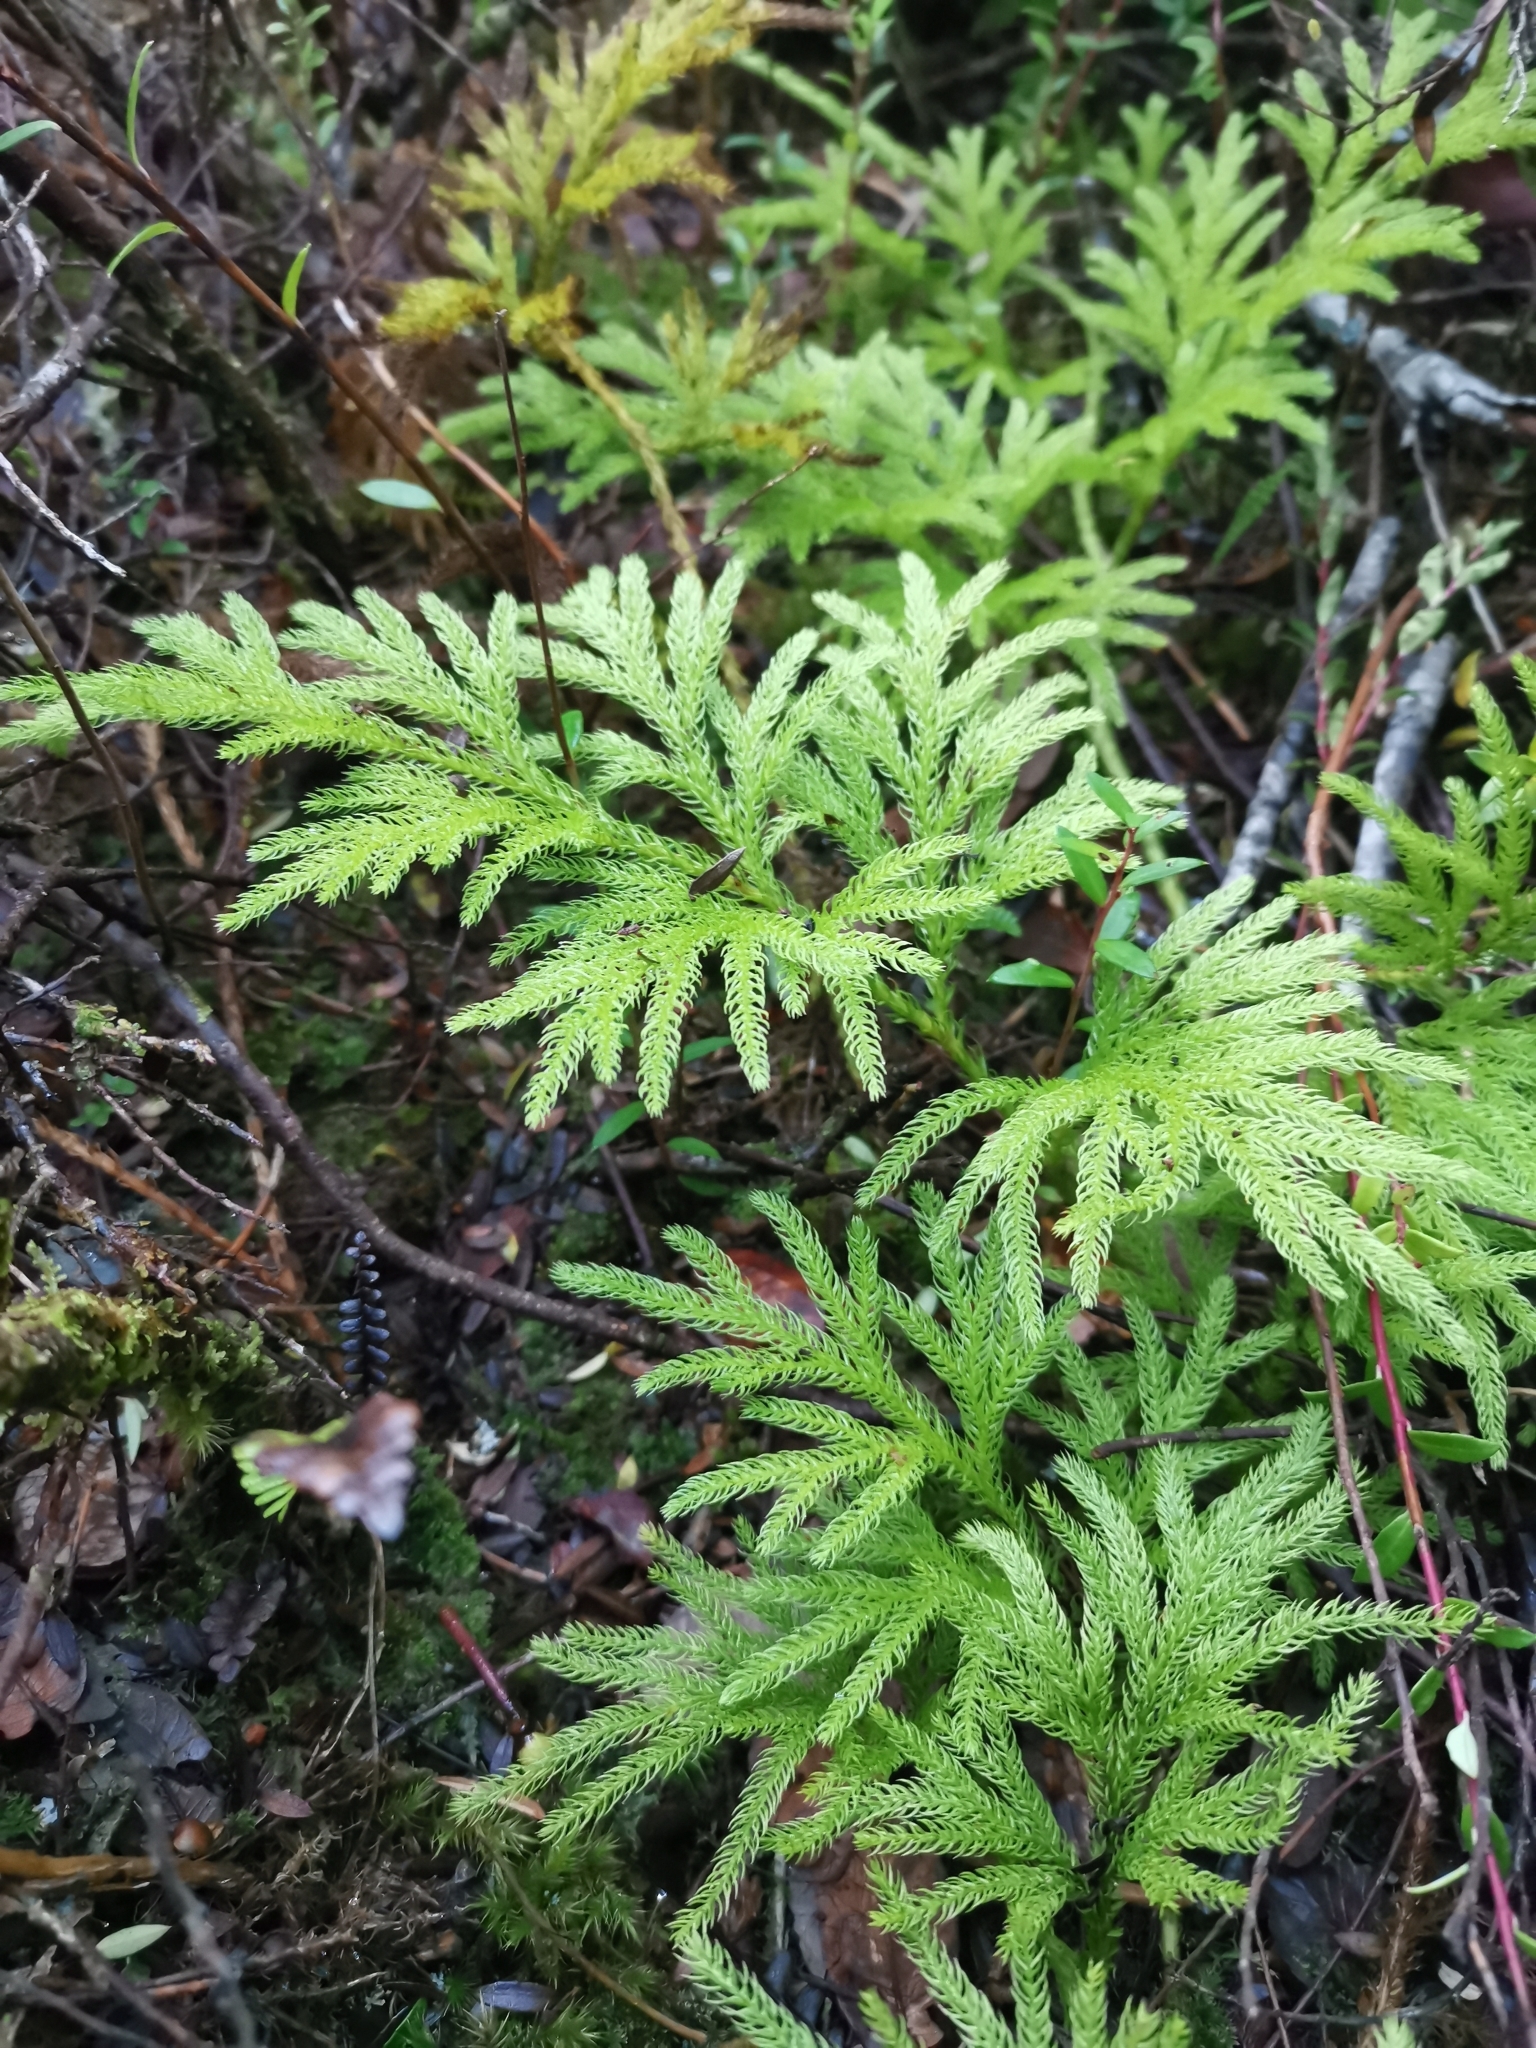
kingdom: Plantae
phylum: Tracheophyta
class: Lycopodiopsida
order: Lycopodiales
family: Lycopodiaceae
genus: Austrolycopodium
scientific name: Austrolycopodium paniculatum
